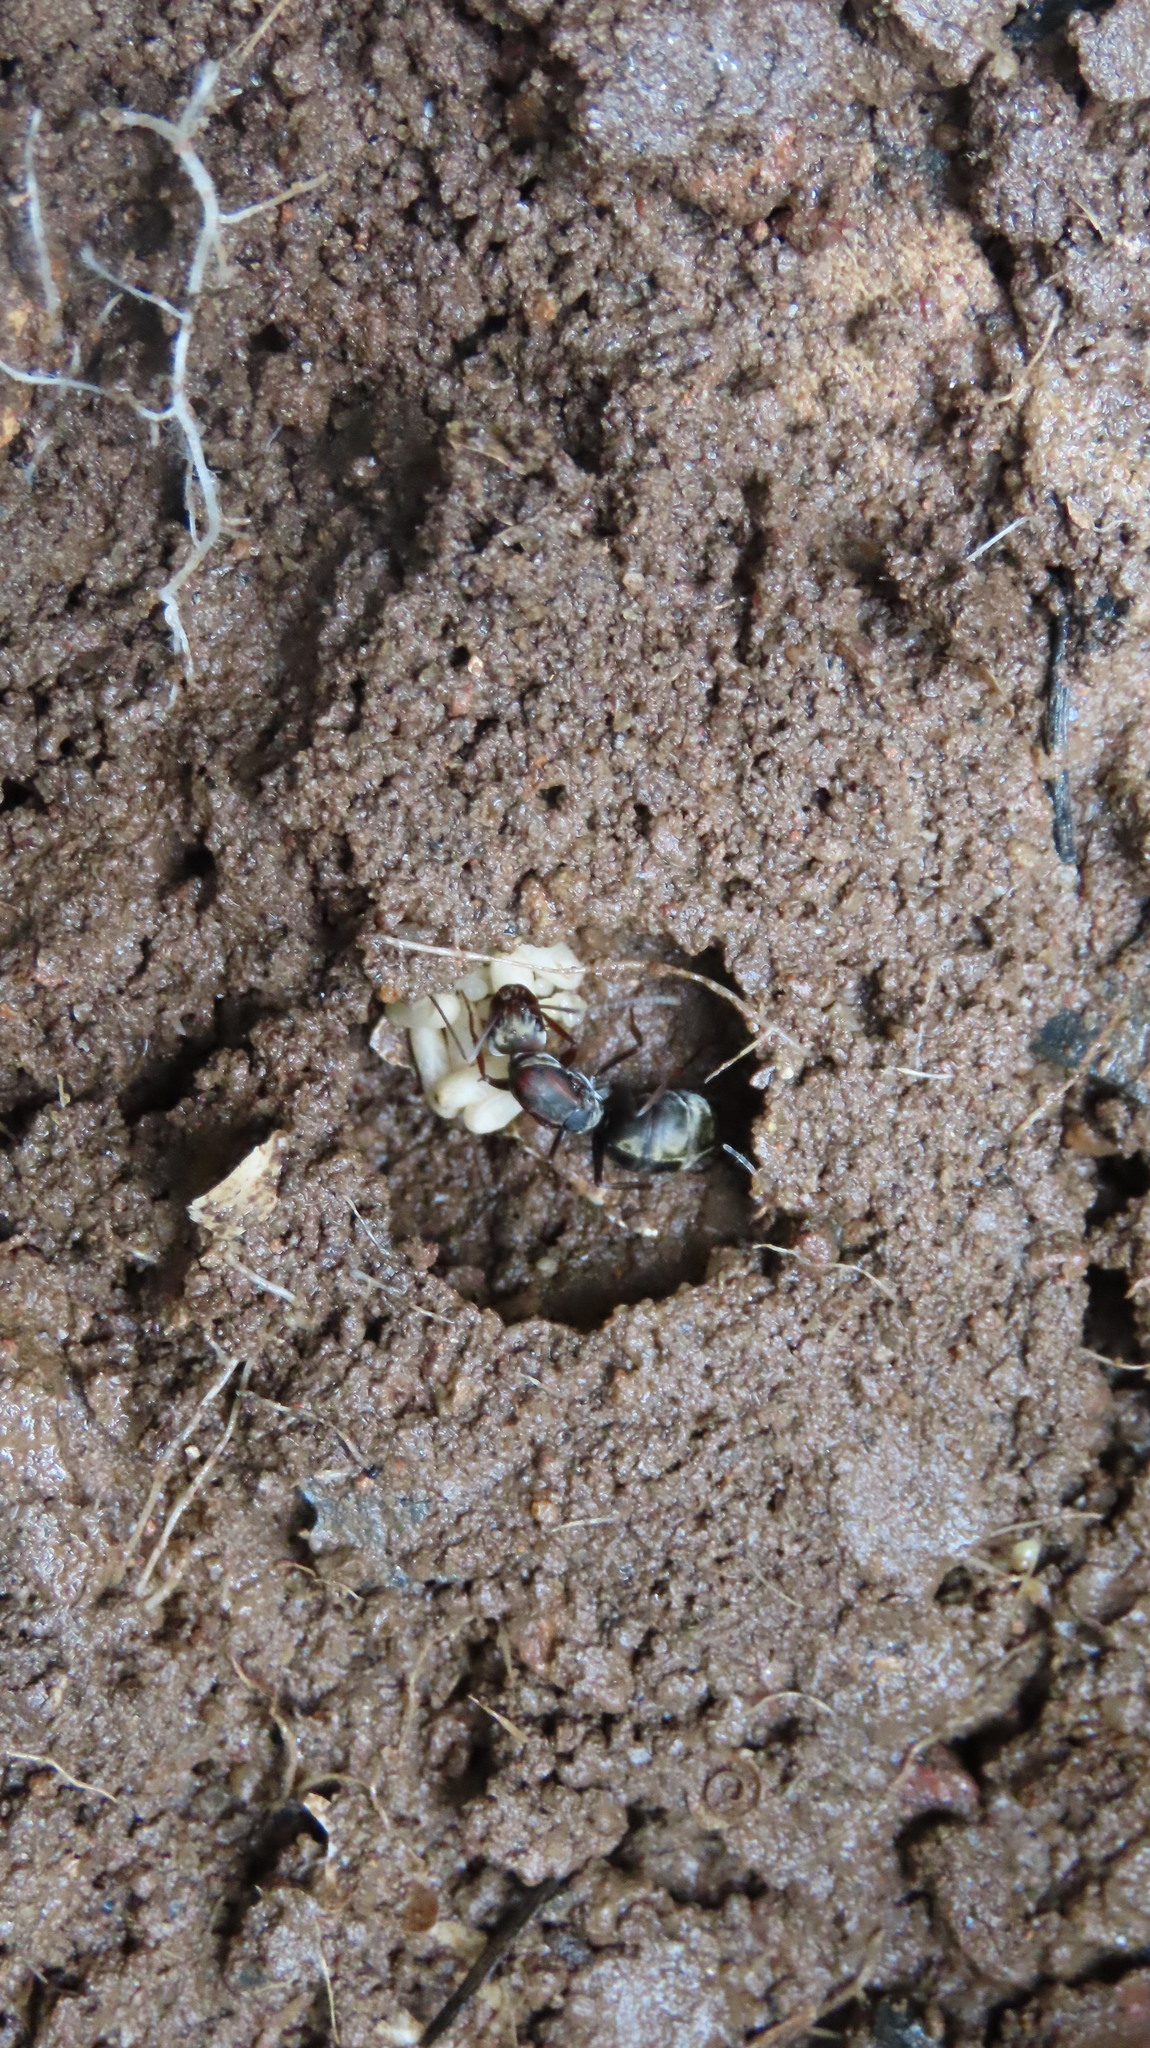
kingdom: Animalia
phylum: Arthropoda
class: Insecta
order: Hymenoptera
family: Formicidae
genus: Camponotus
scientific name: Camponotus rufoglaucus
